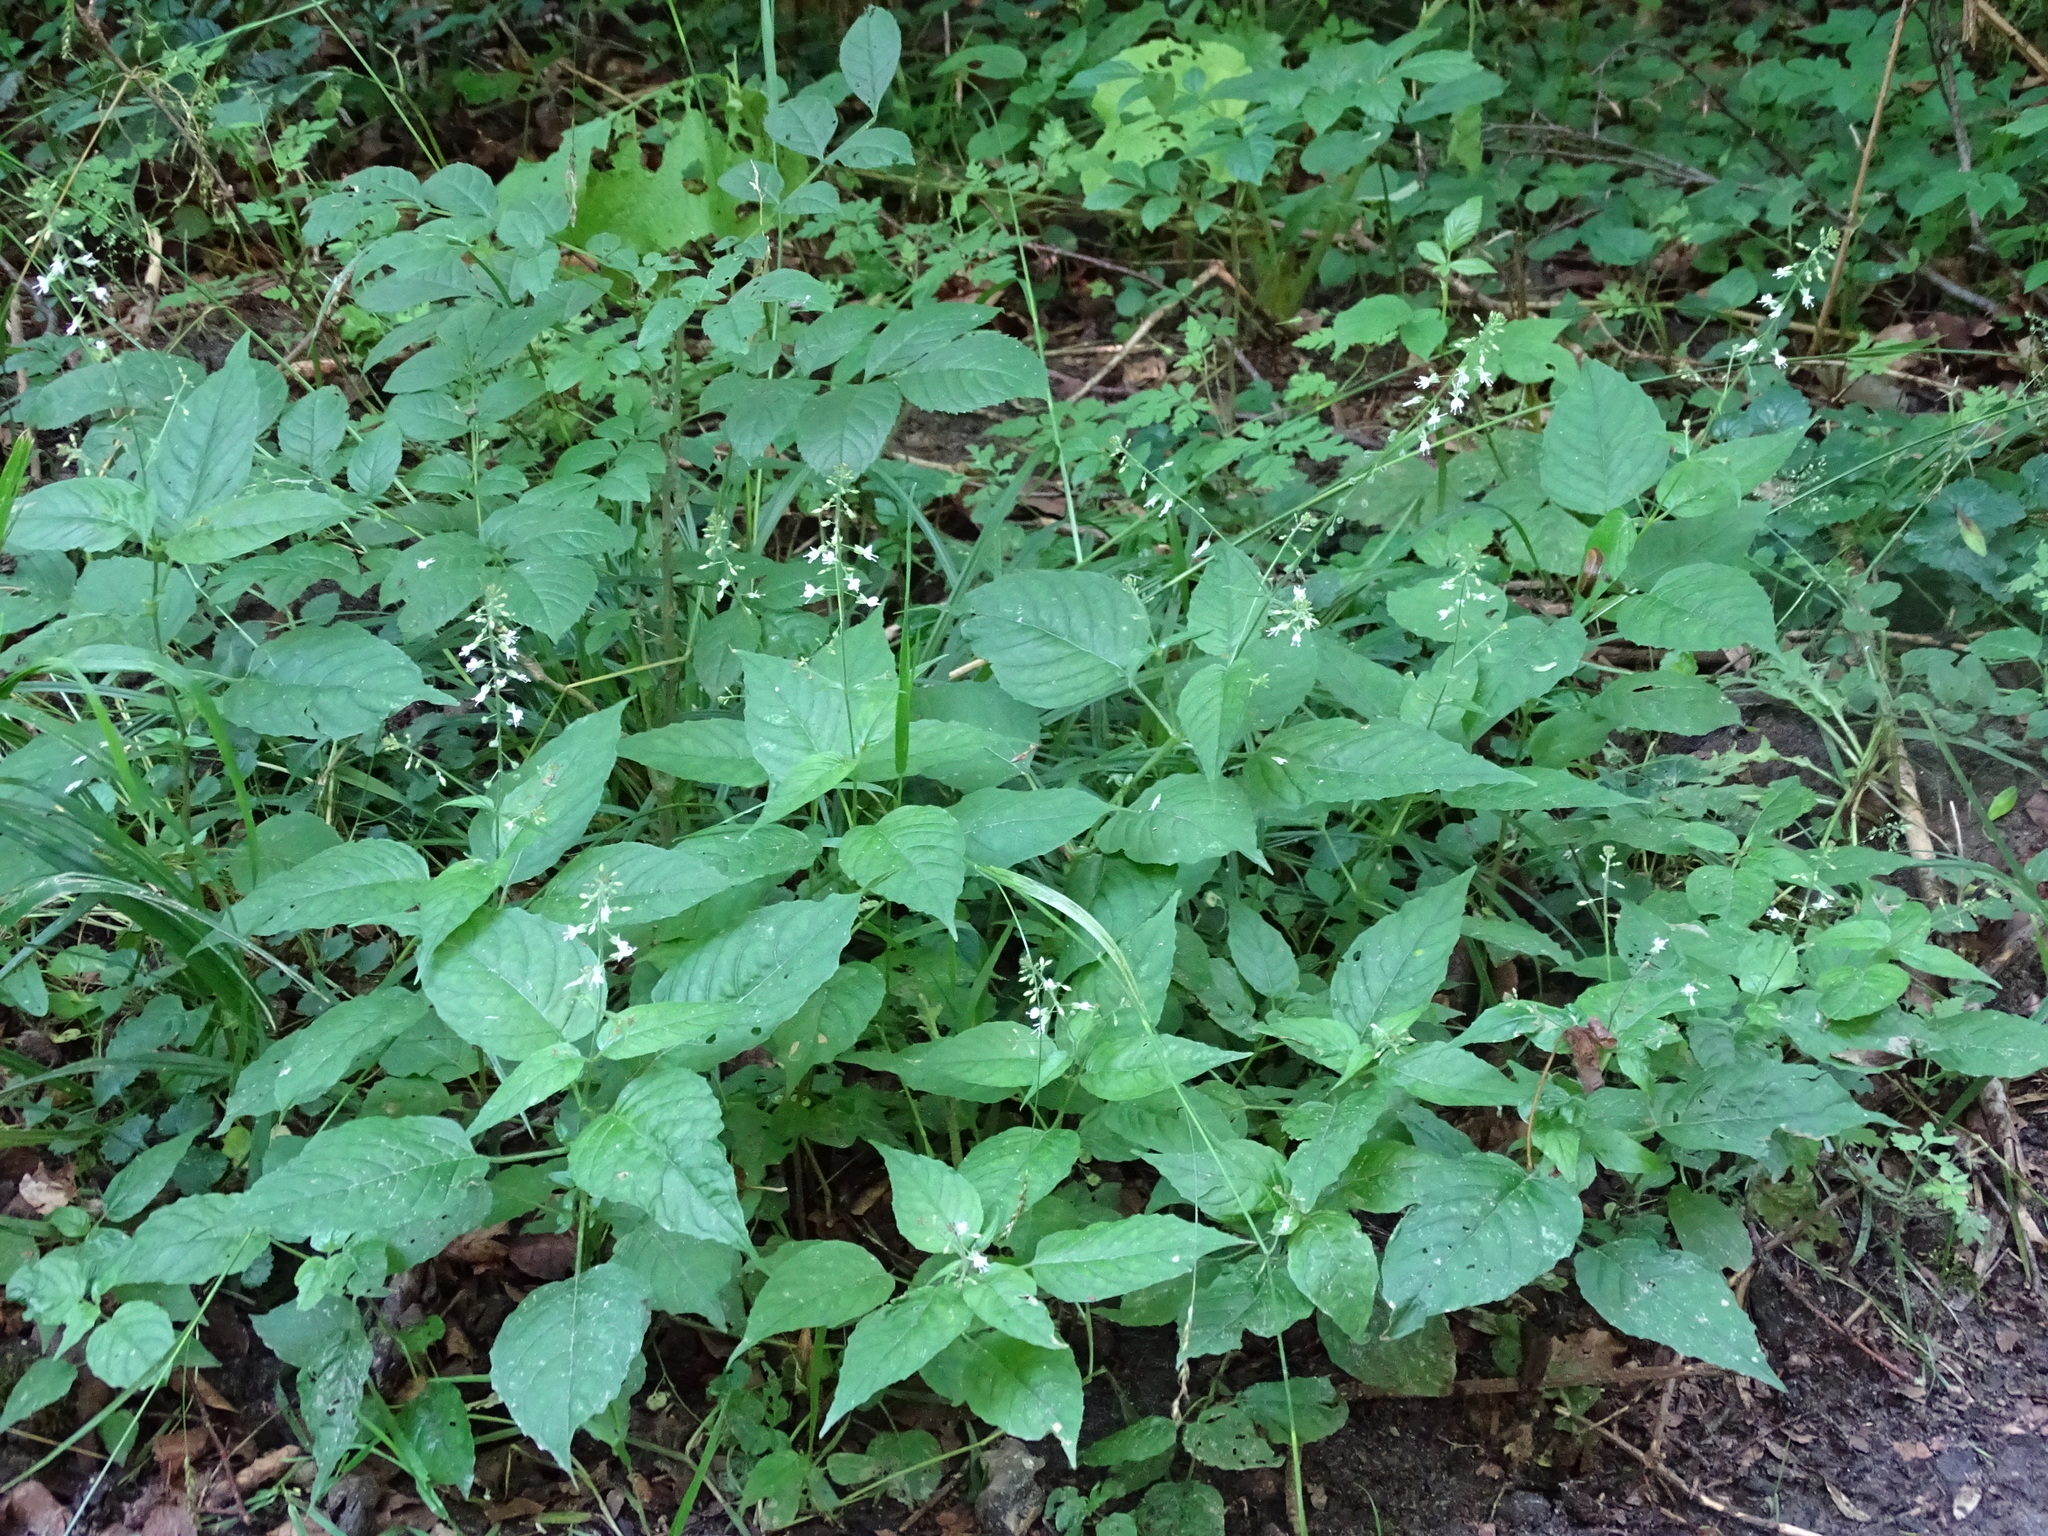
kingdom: Plantae
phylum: Tracheophyta
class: Magnoliopsida
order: Myrtales
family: Onagraceae
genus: Circaea
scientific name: Circaea lutetiana
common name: Enchanter's-nightshade
